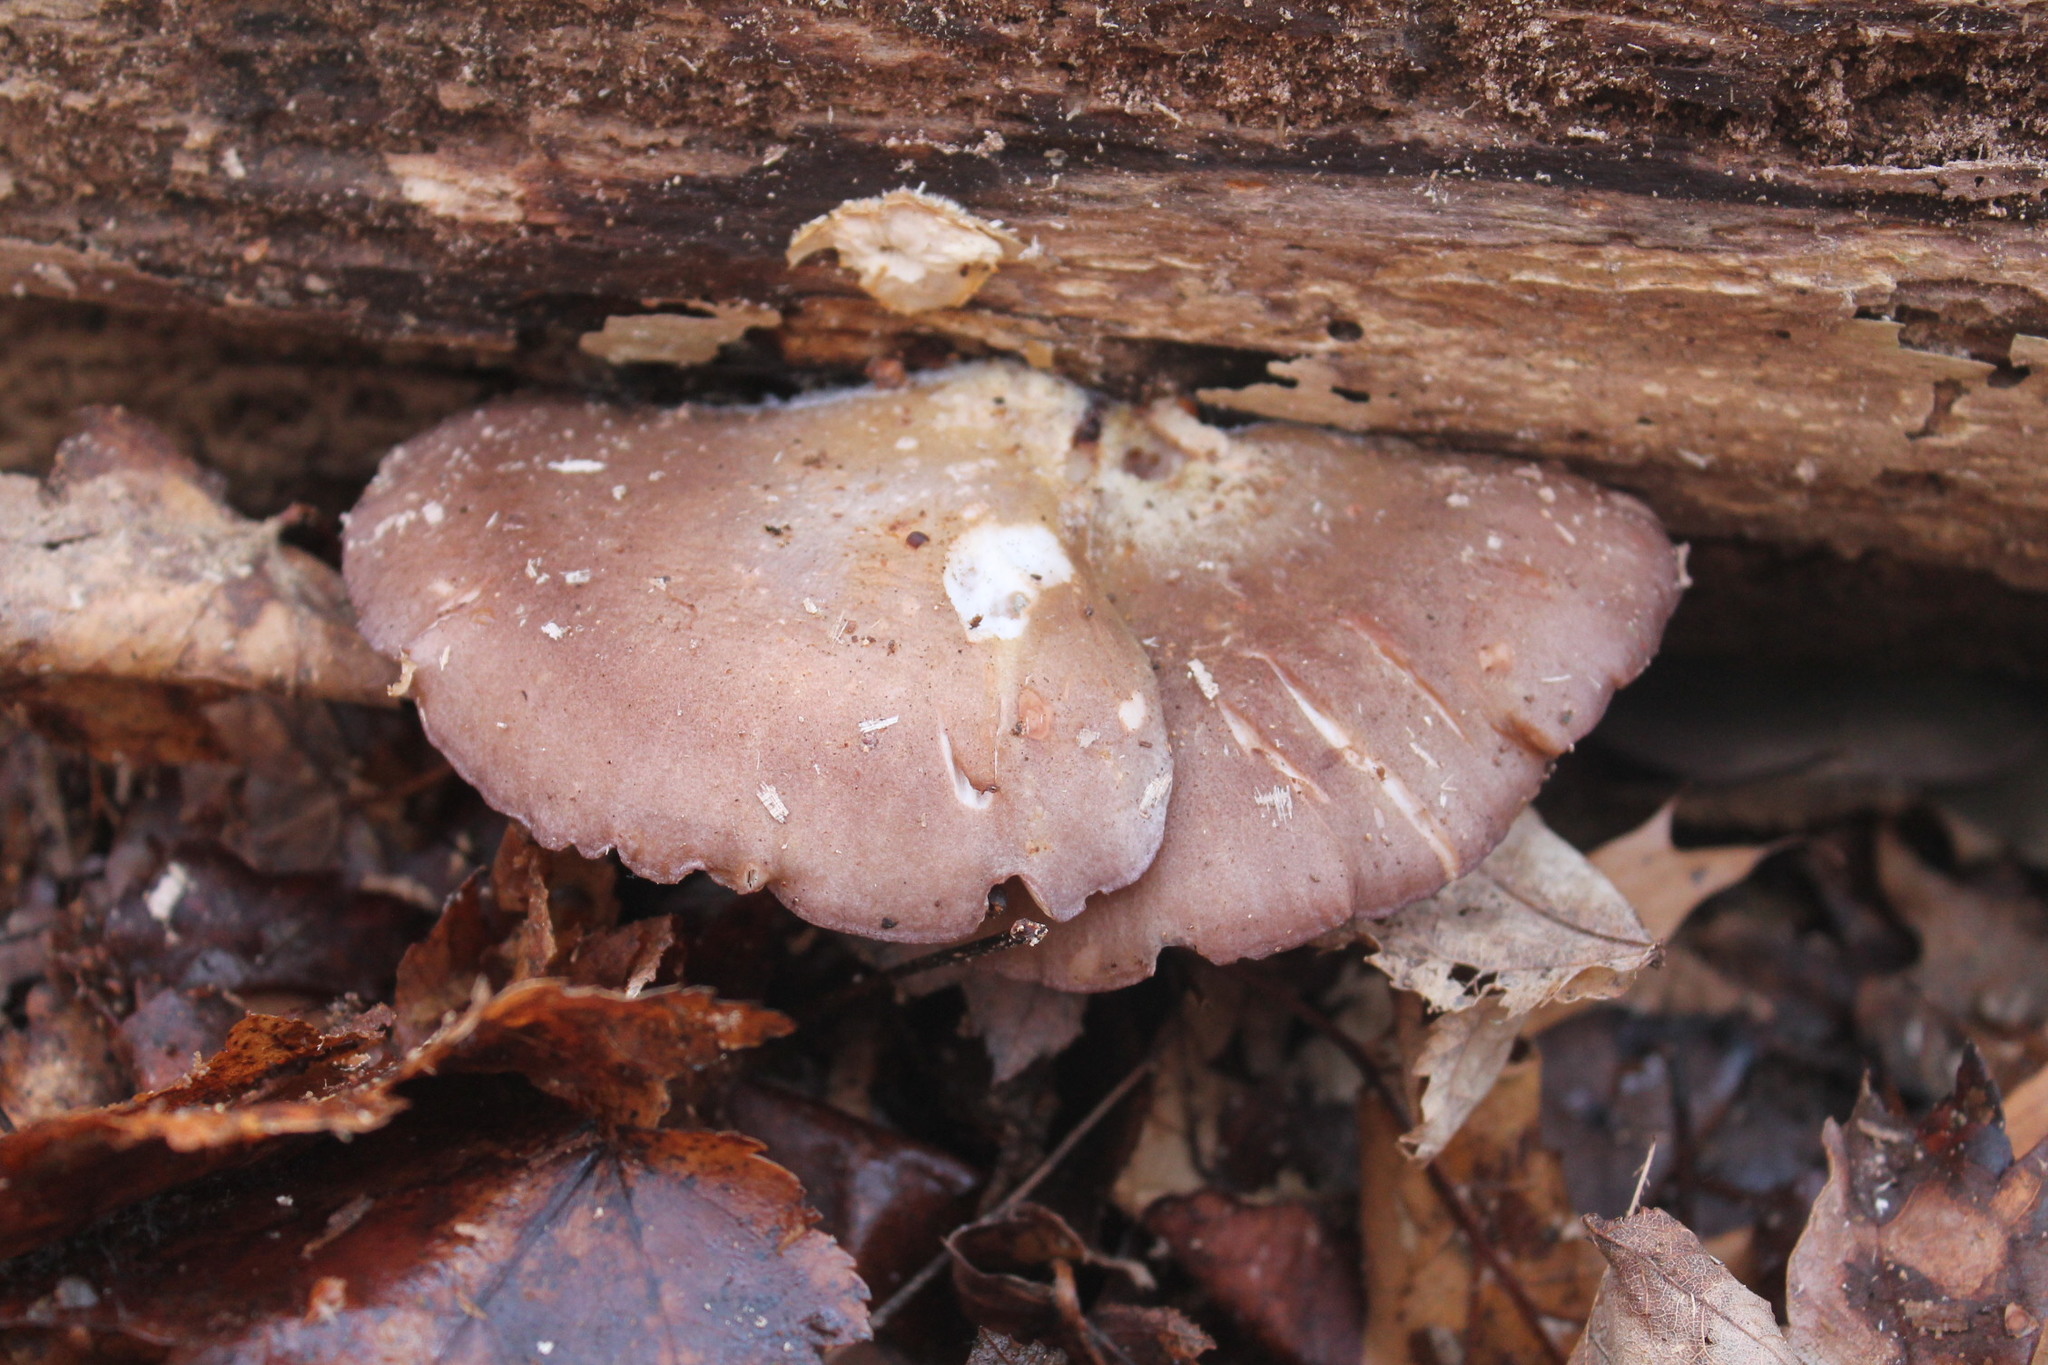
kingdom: Fungi
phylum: Basidiomycota
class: Agaricomycetes
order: Agaricales
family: Sarcomyxaceae
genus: Sarcomyxa
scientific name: Sarcomyxa serotina
